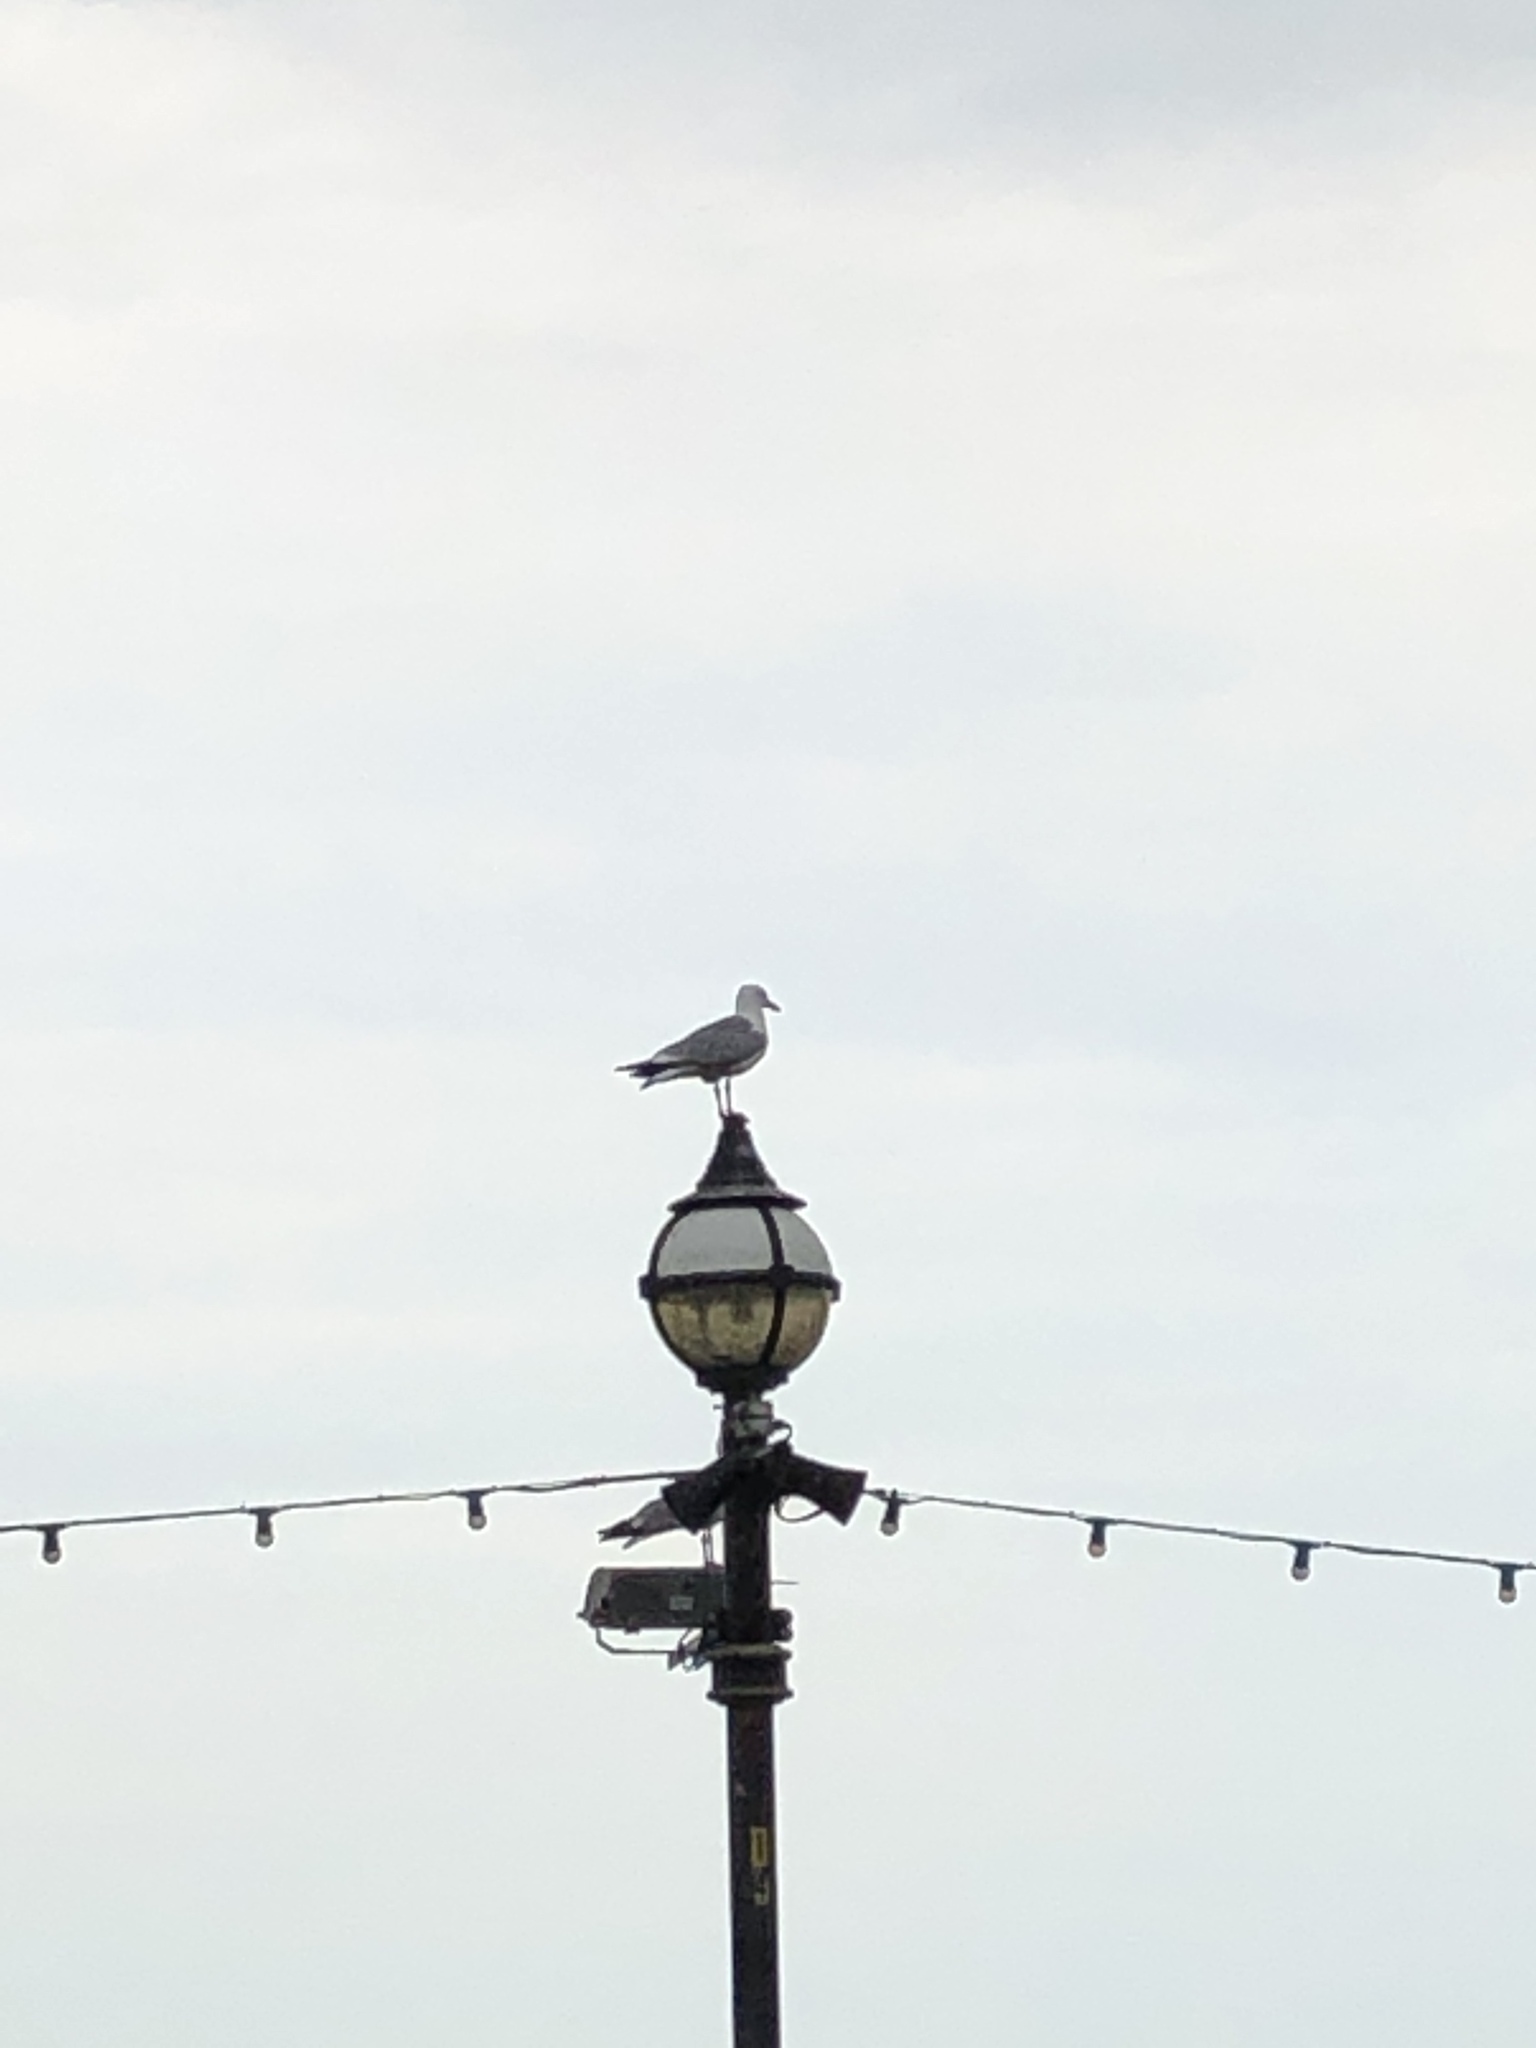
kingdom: Animalia
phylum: Chordata
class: Aves
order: Charadriiformes
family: Laridae
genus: Larus
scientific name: Larus argentatus
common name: Herring gull
